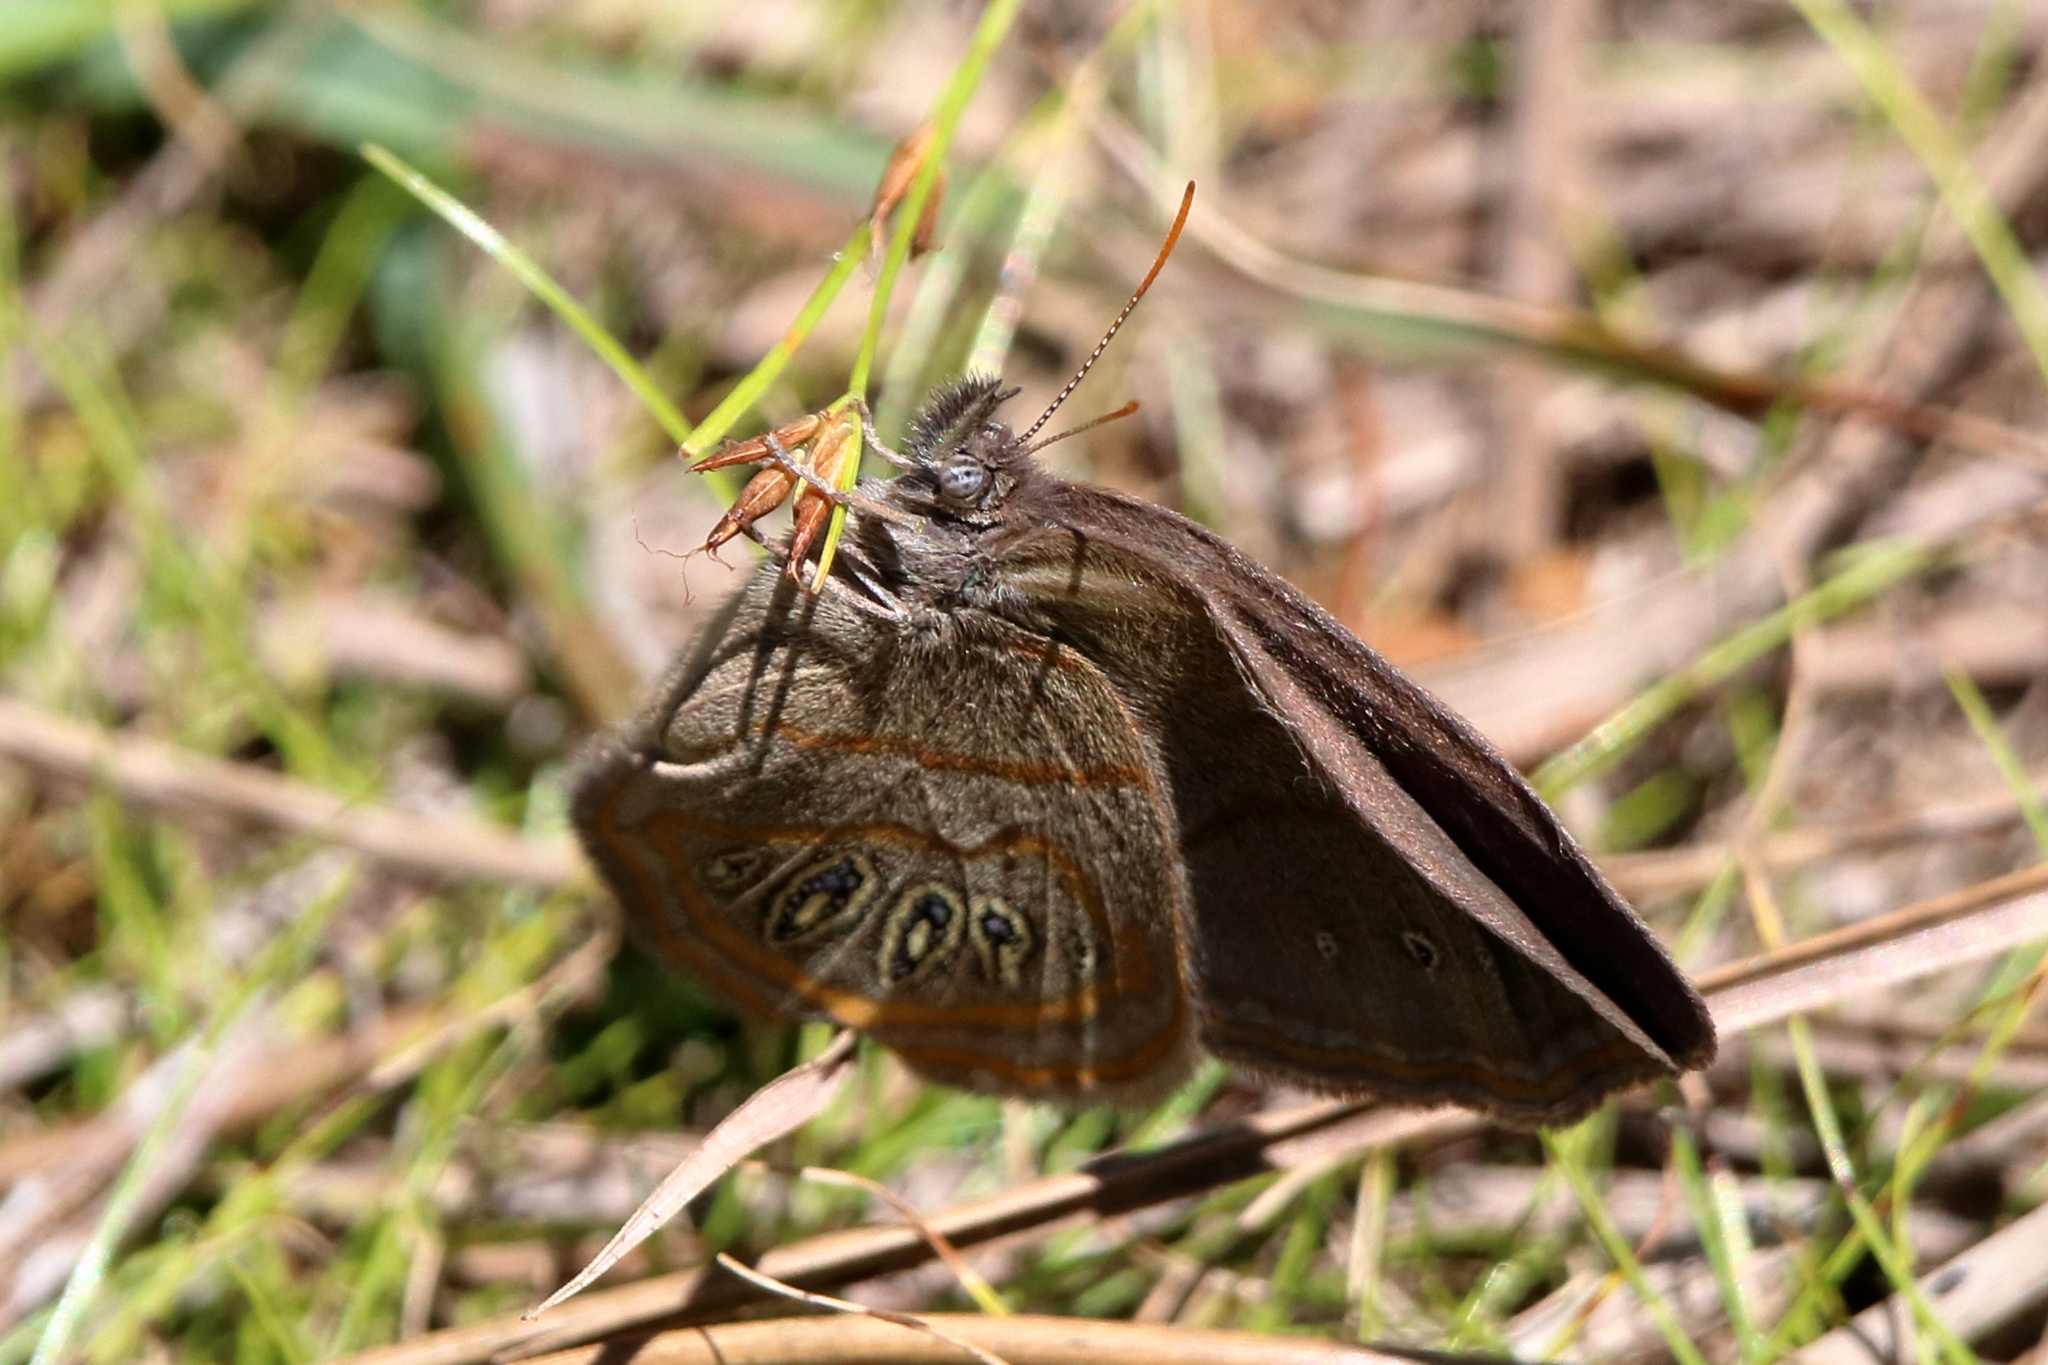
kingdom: Animalia
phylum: Arthropoda
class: Insecta
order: Lepidoptera
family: Nymphalidae
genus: Euptychia
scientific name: Euptychia phocion
